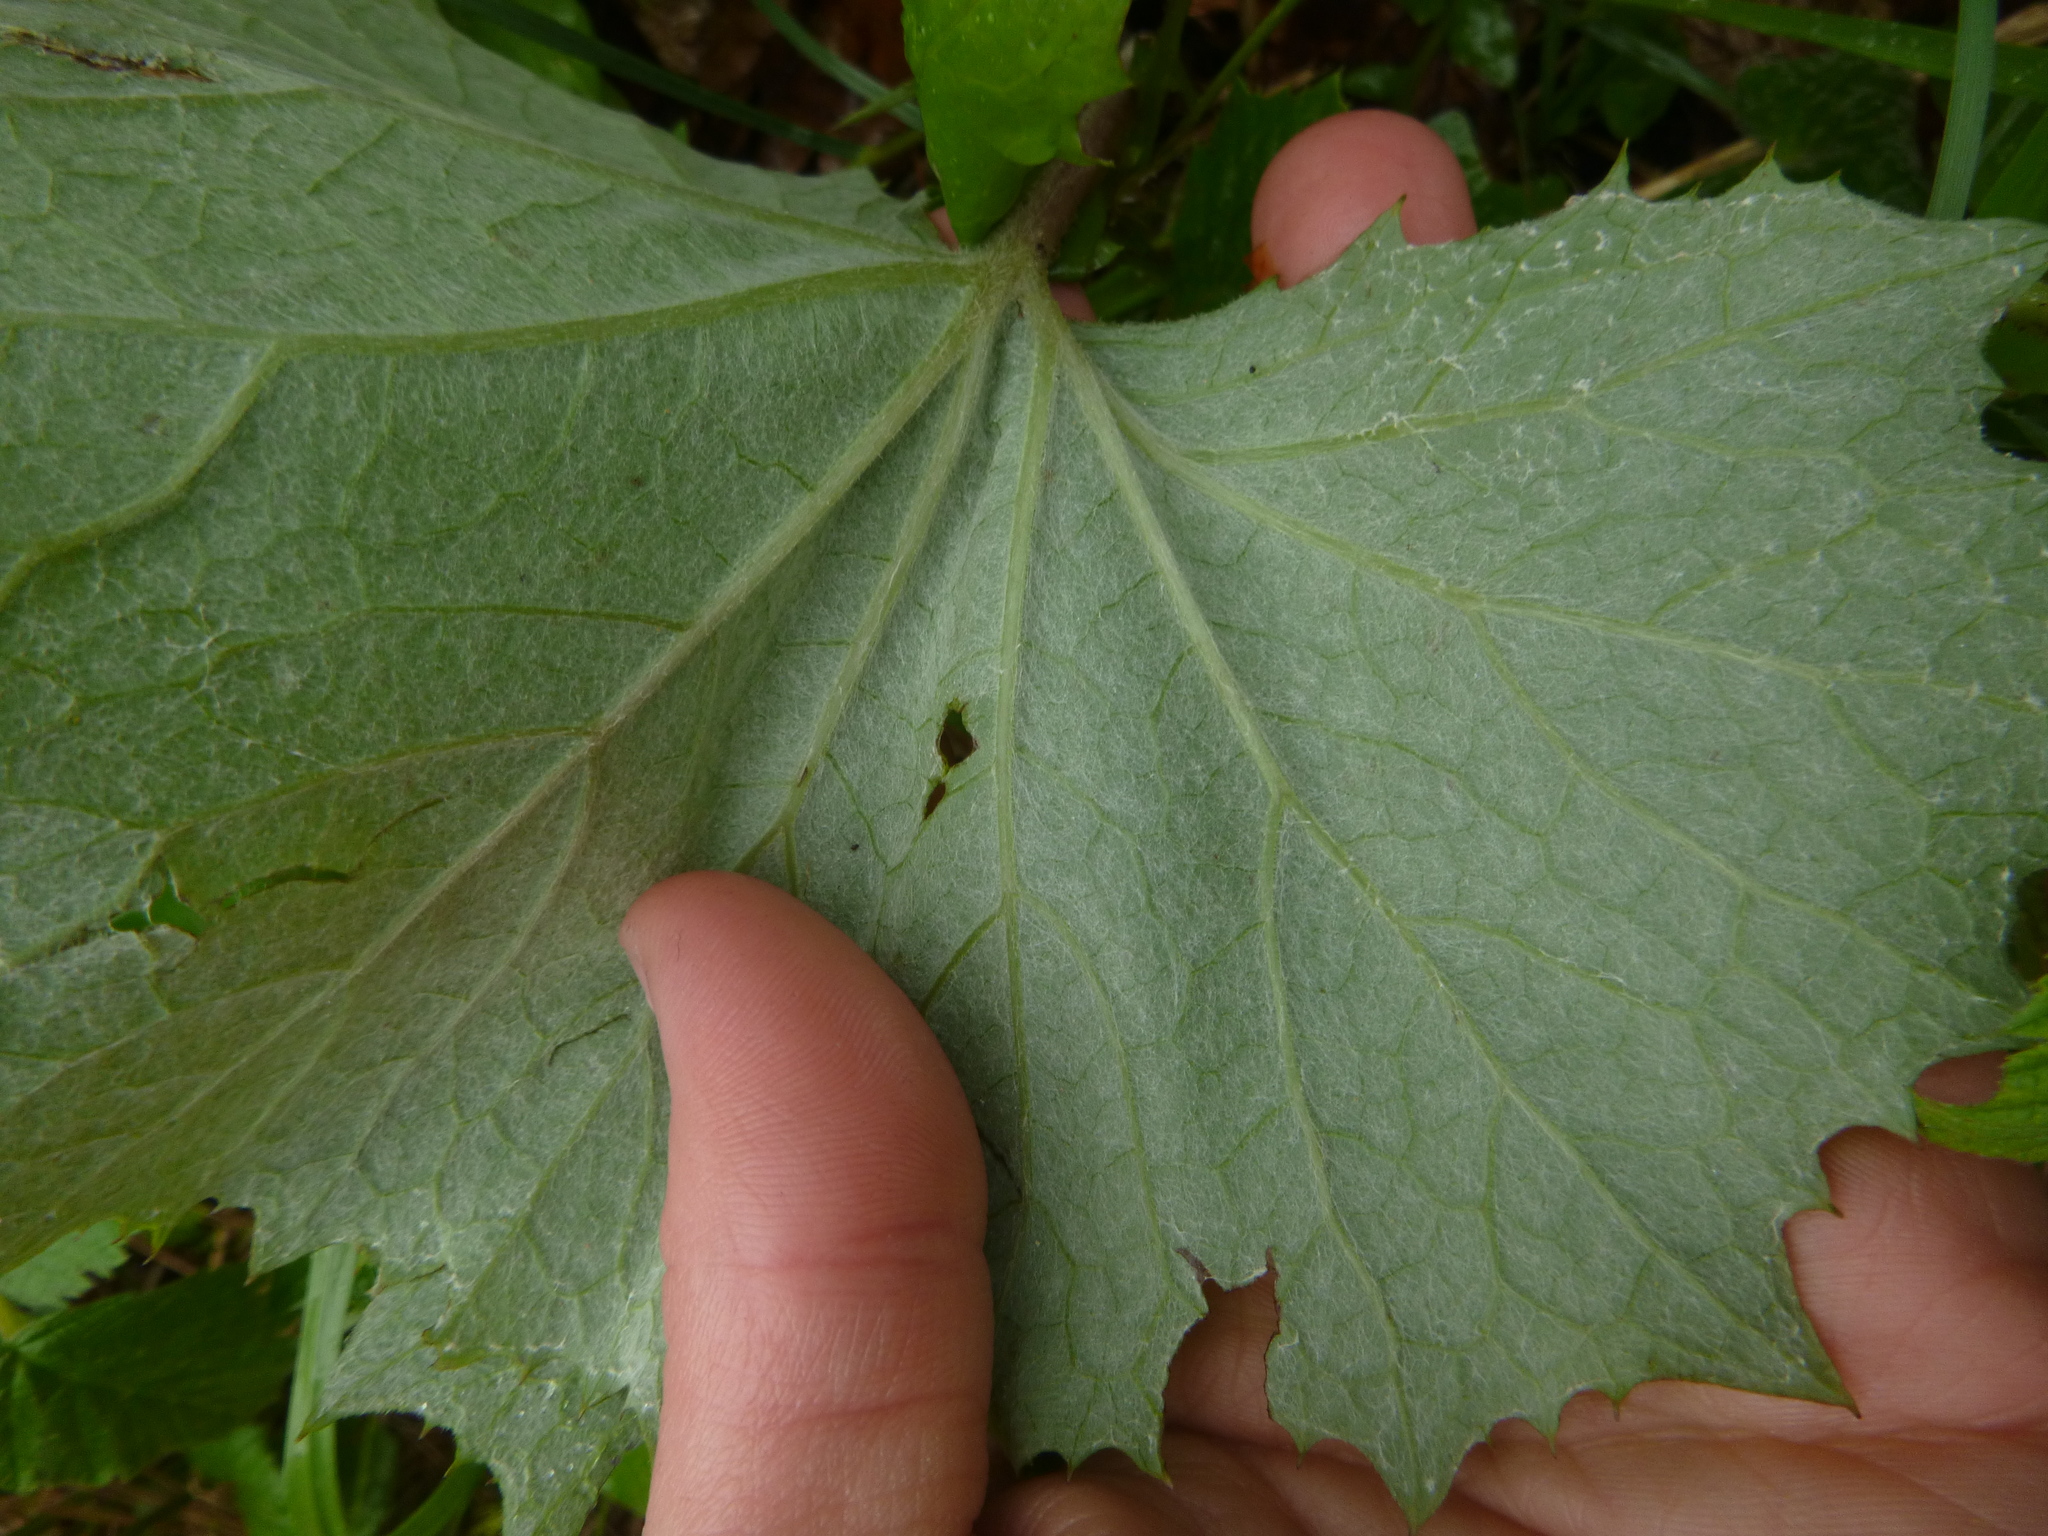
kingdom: Plantae
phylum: Tracheophyta
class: Magnoliopsida
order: Asterales
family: Asteraceae
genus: Petasites
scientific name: Petasites albus
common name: White butterbur
